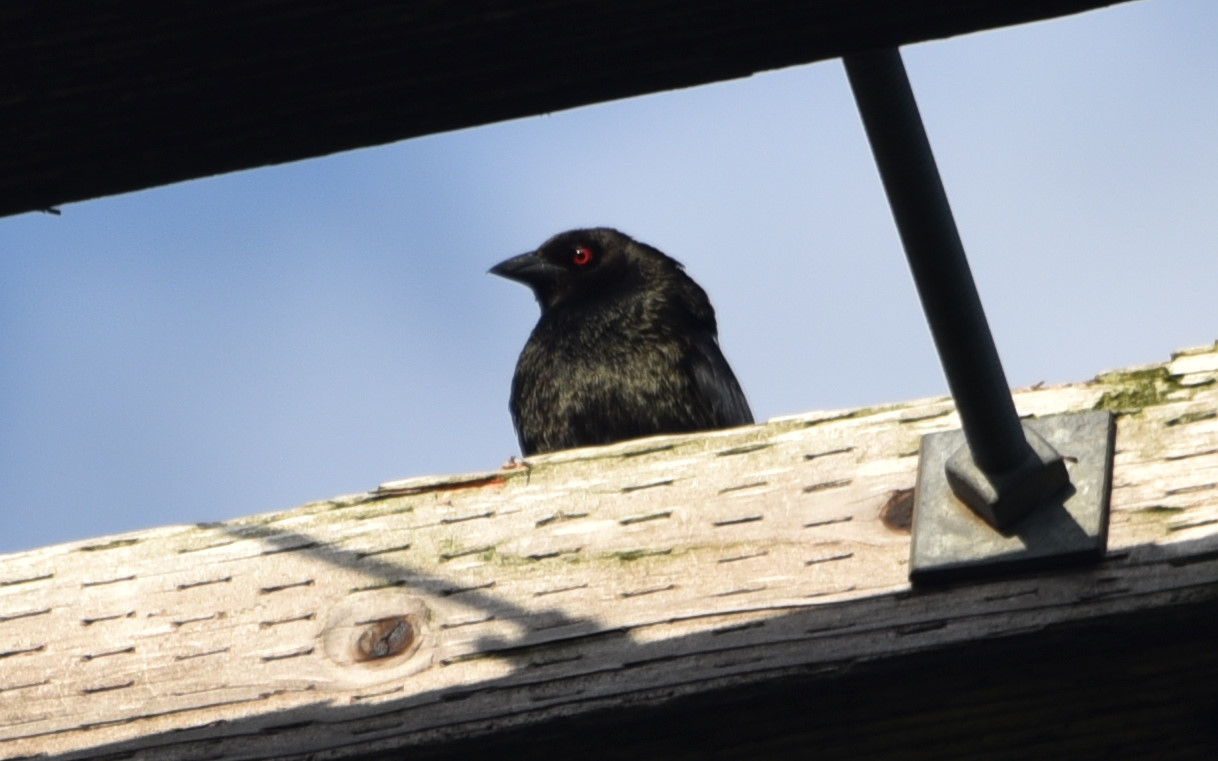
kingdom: Animalia
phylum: Chordata
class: Aves
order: Passeriformes
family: Icteridae
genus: Molothrus
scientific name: Molothrus aeneus
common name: Bronzed cowbird
